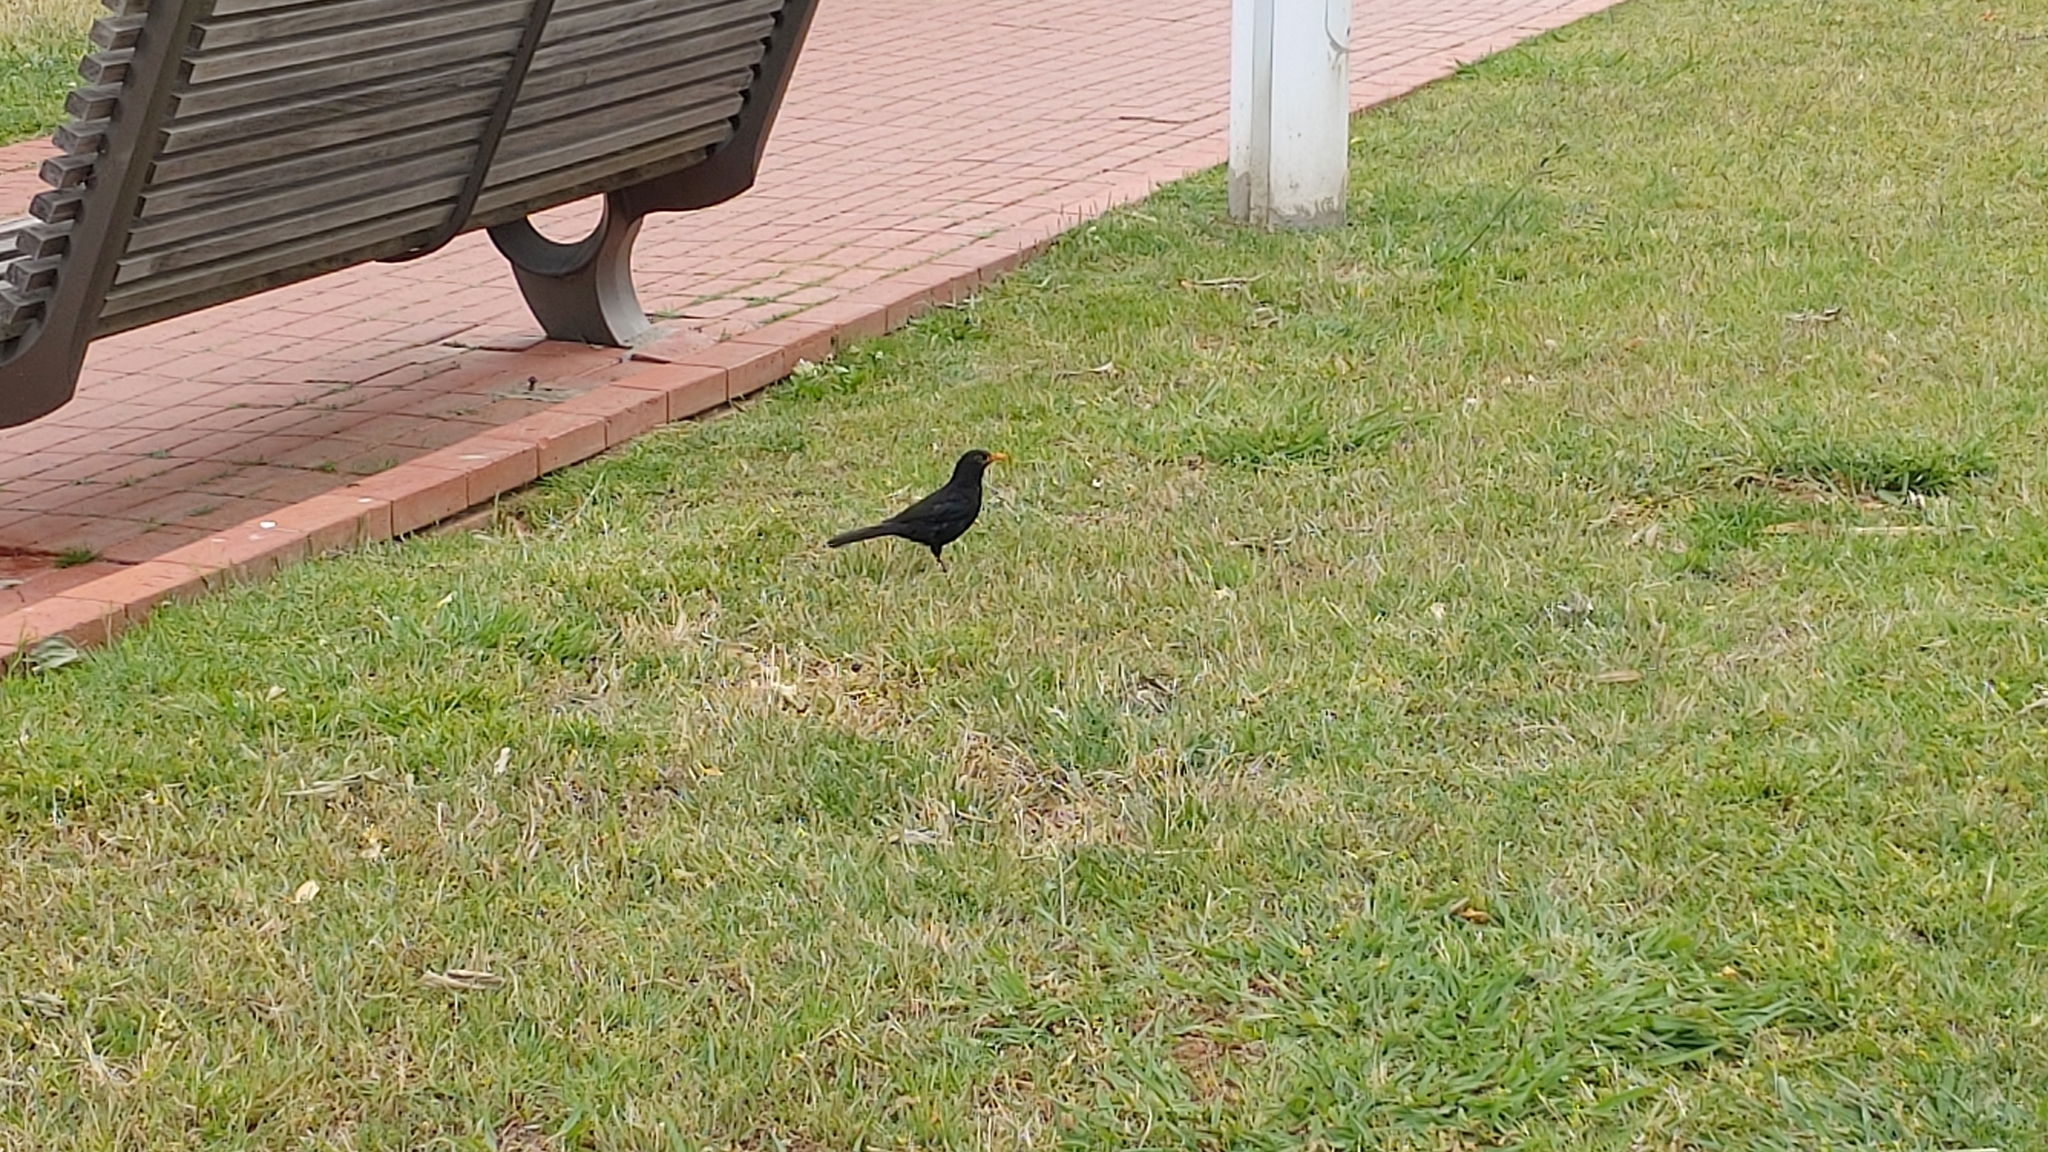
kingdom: Animalia
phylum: Chordata
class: Aves
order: Passeriformes
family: Turdidae
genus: Turdus
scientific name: Turdus merula
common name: Common blackbird
